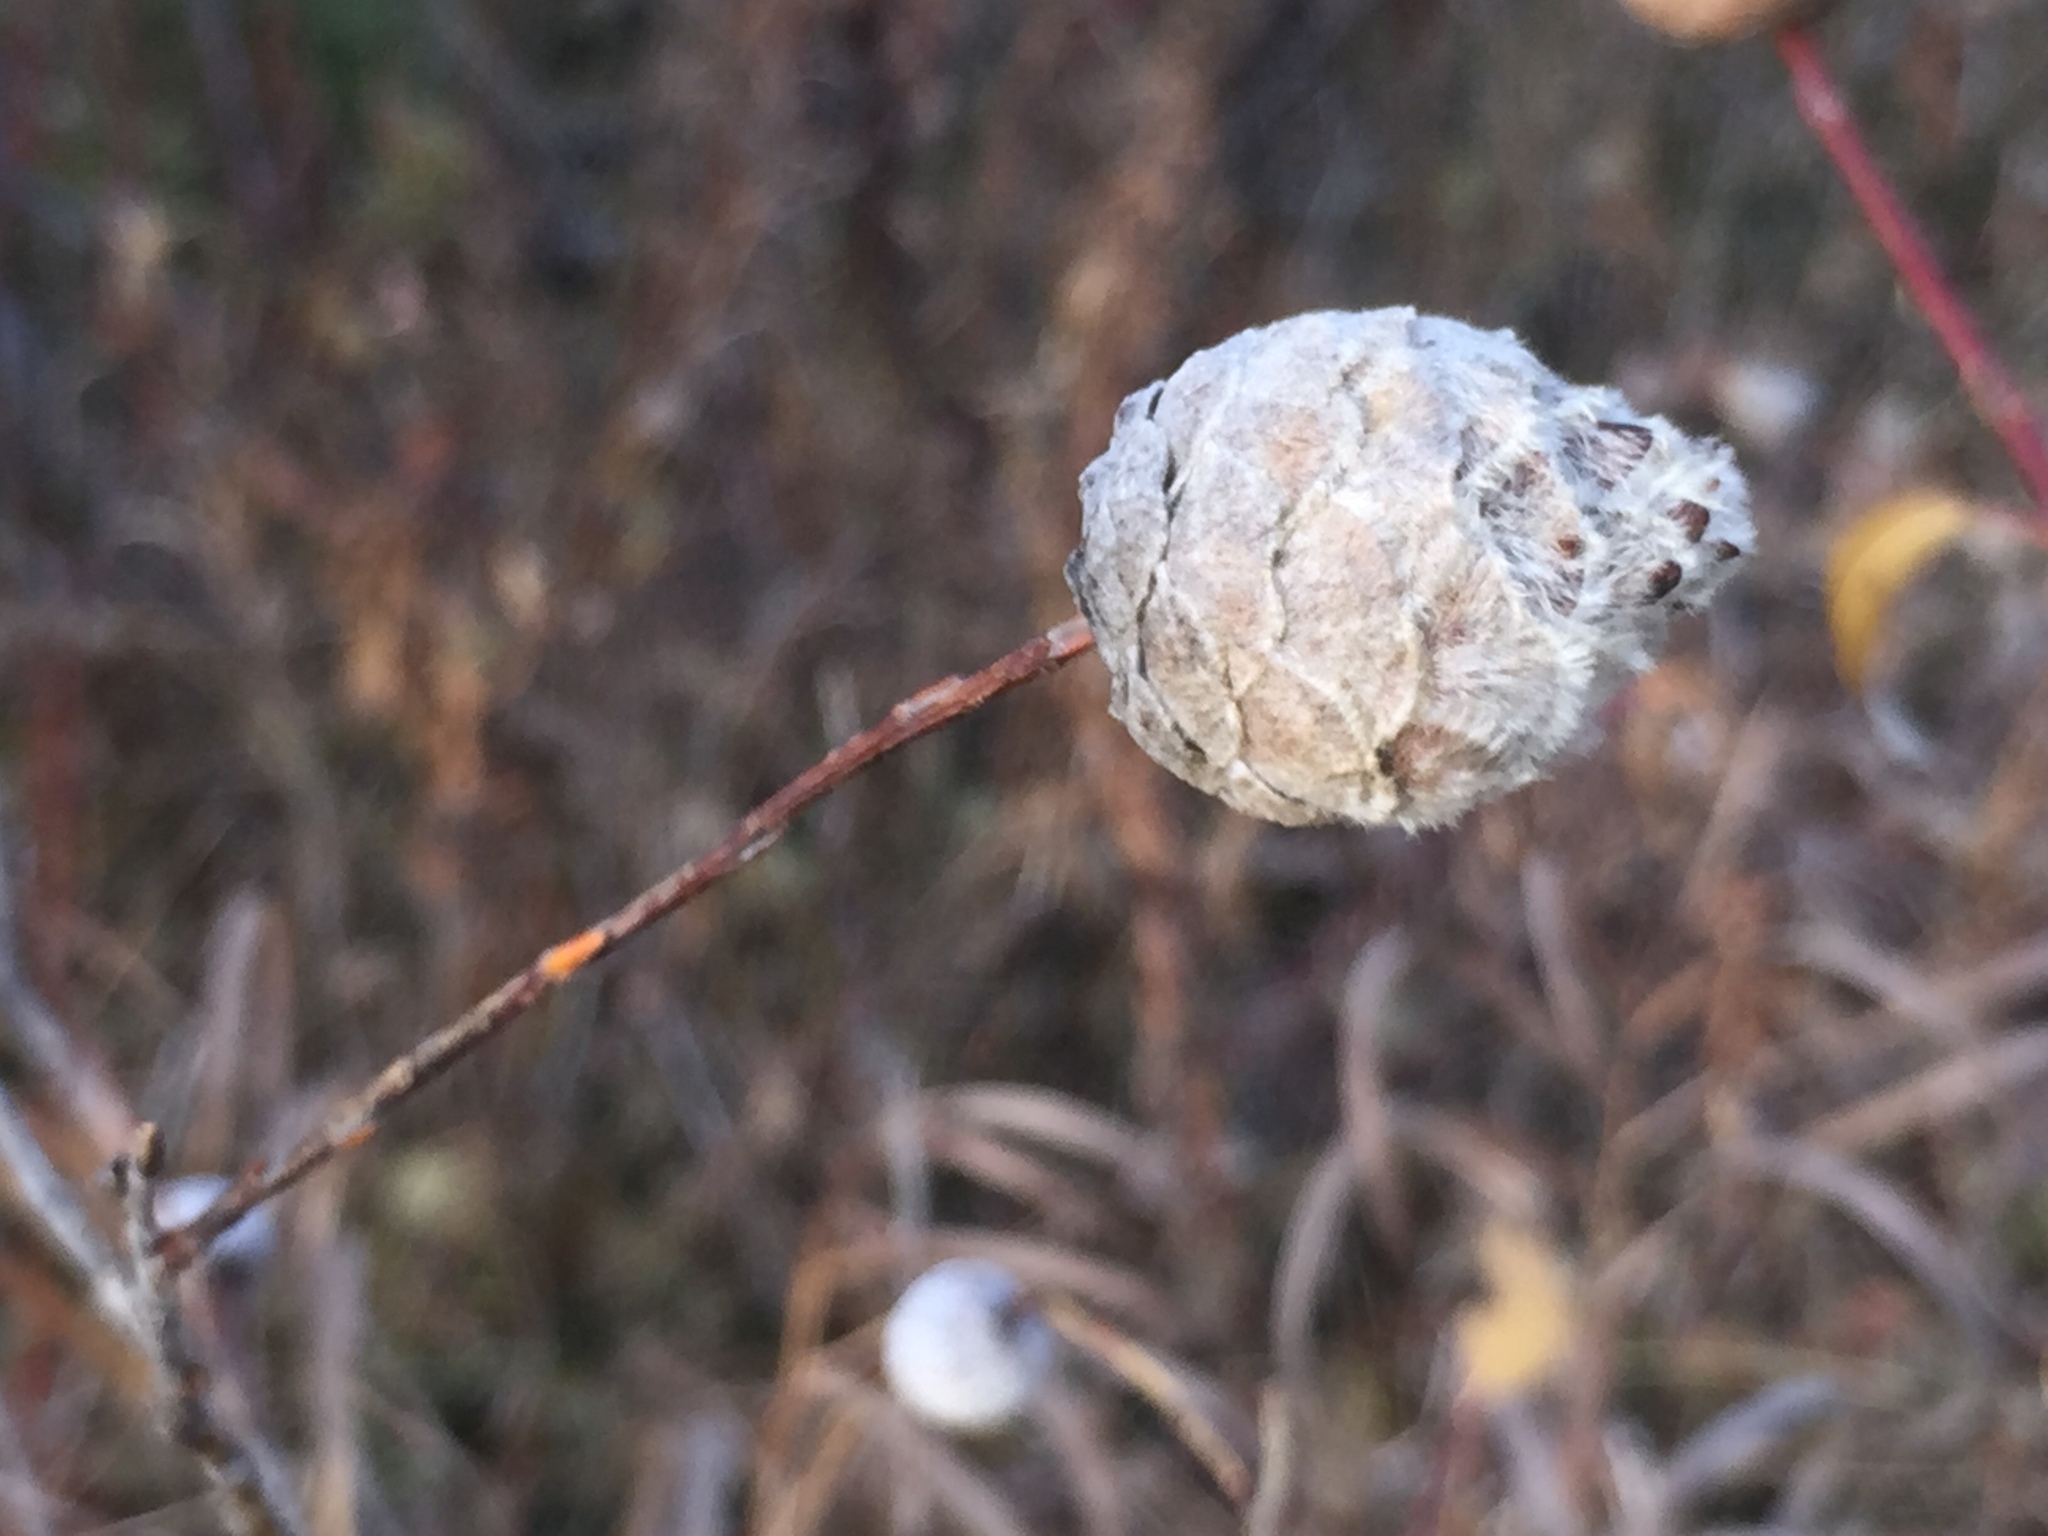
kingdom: Animalia
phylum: Arthropoda
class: Insecta
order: Diptera
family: Cecidomyiidae
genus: Rabdophaga
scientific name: Rabdophaga strobiloides
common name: Willow pinecone gall midge
